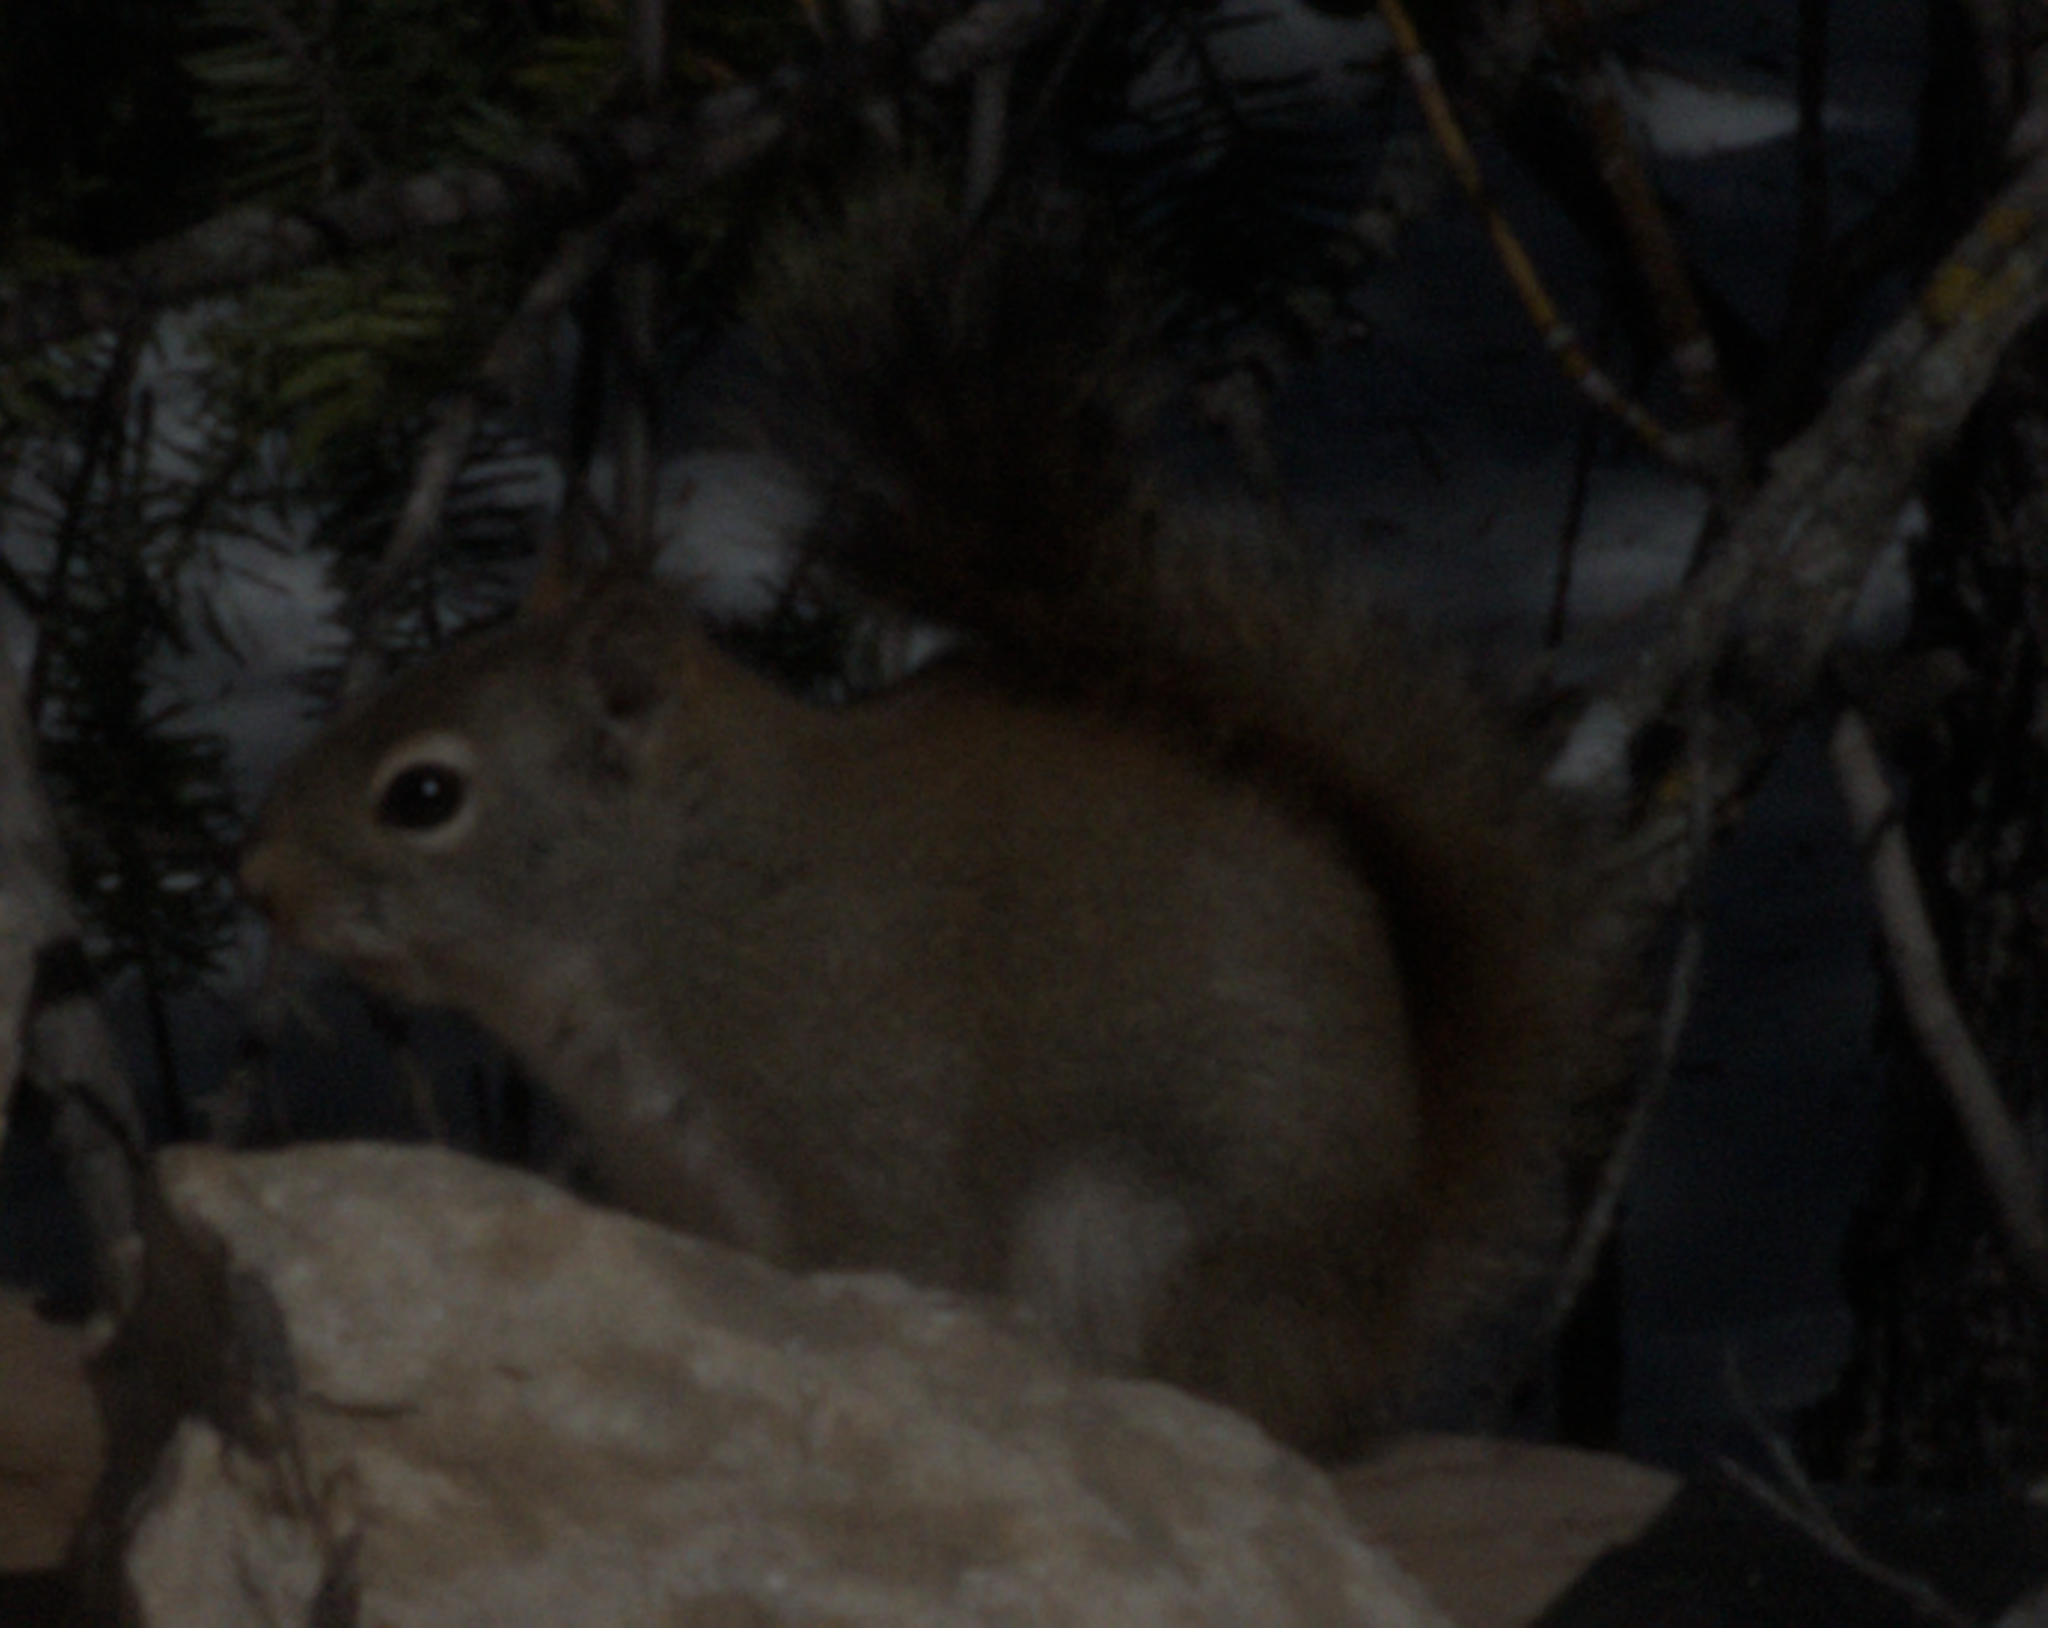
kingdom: Animalia
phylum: Chordata
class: Mammalia
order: Rodentia
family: Sciuridae
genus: Tamiasciurus
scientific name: Tamiasciurus hudsonicus
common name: Red squirrel
